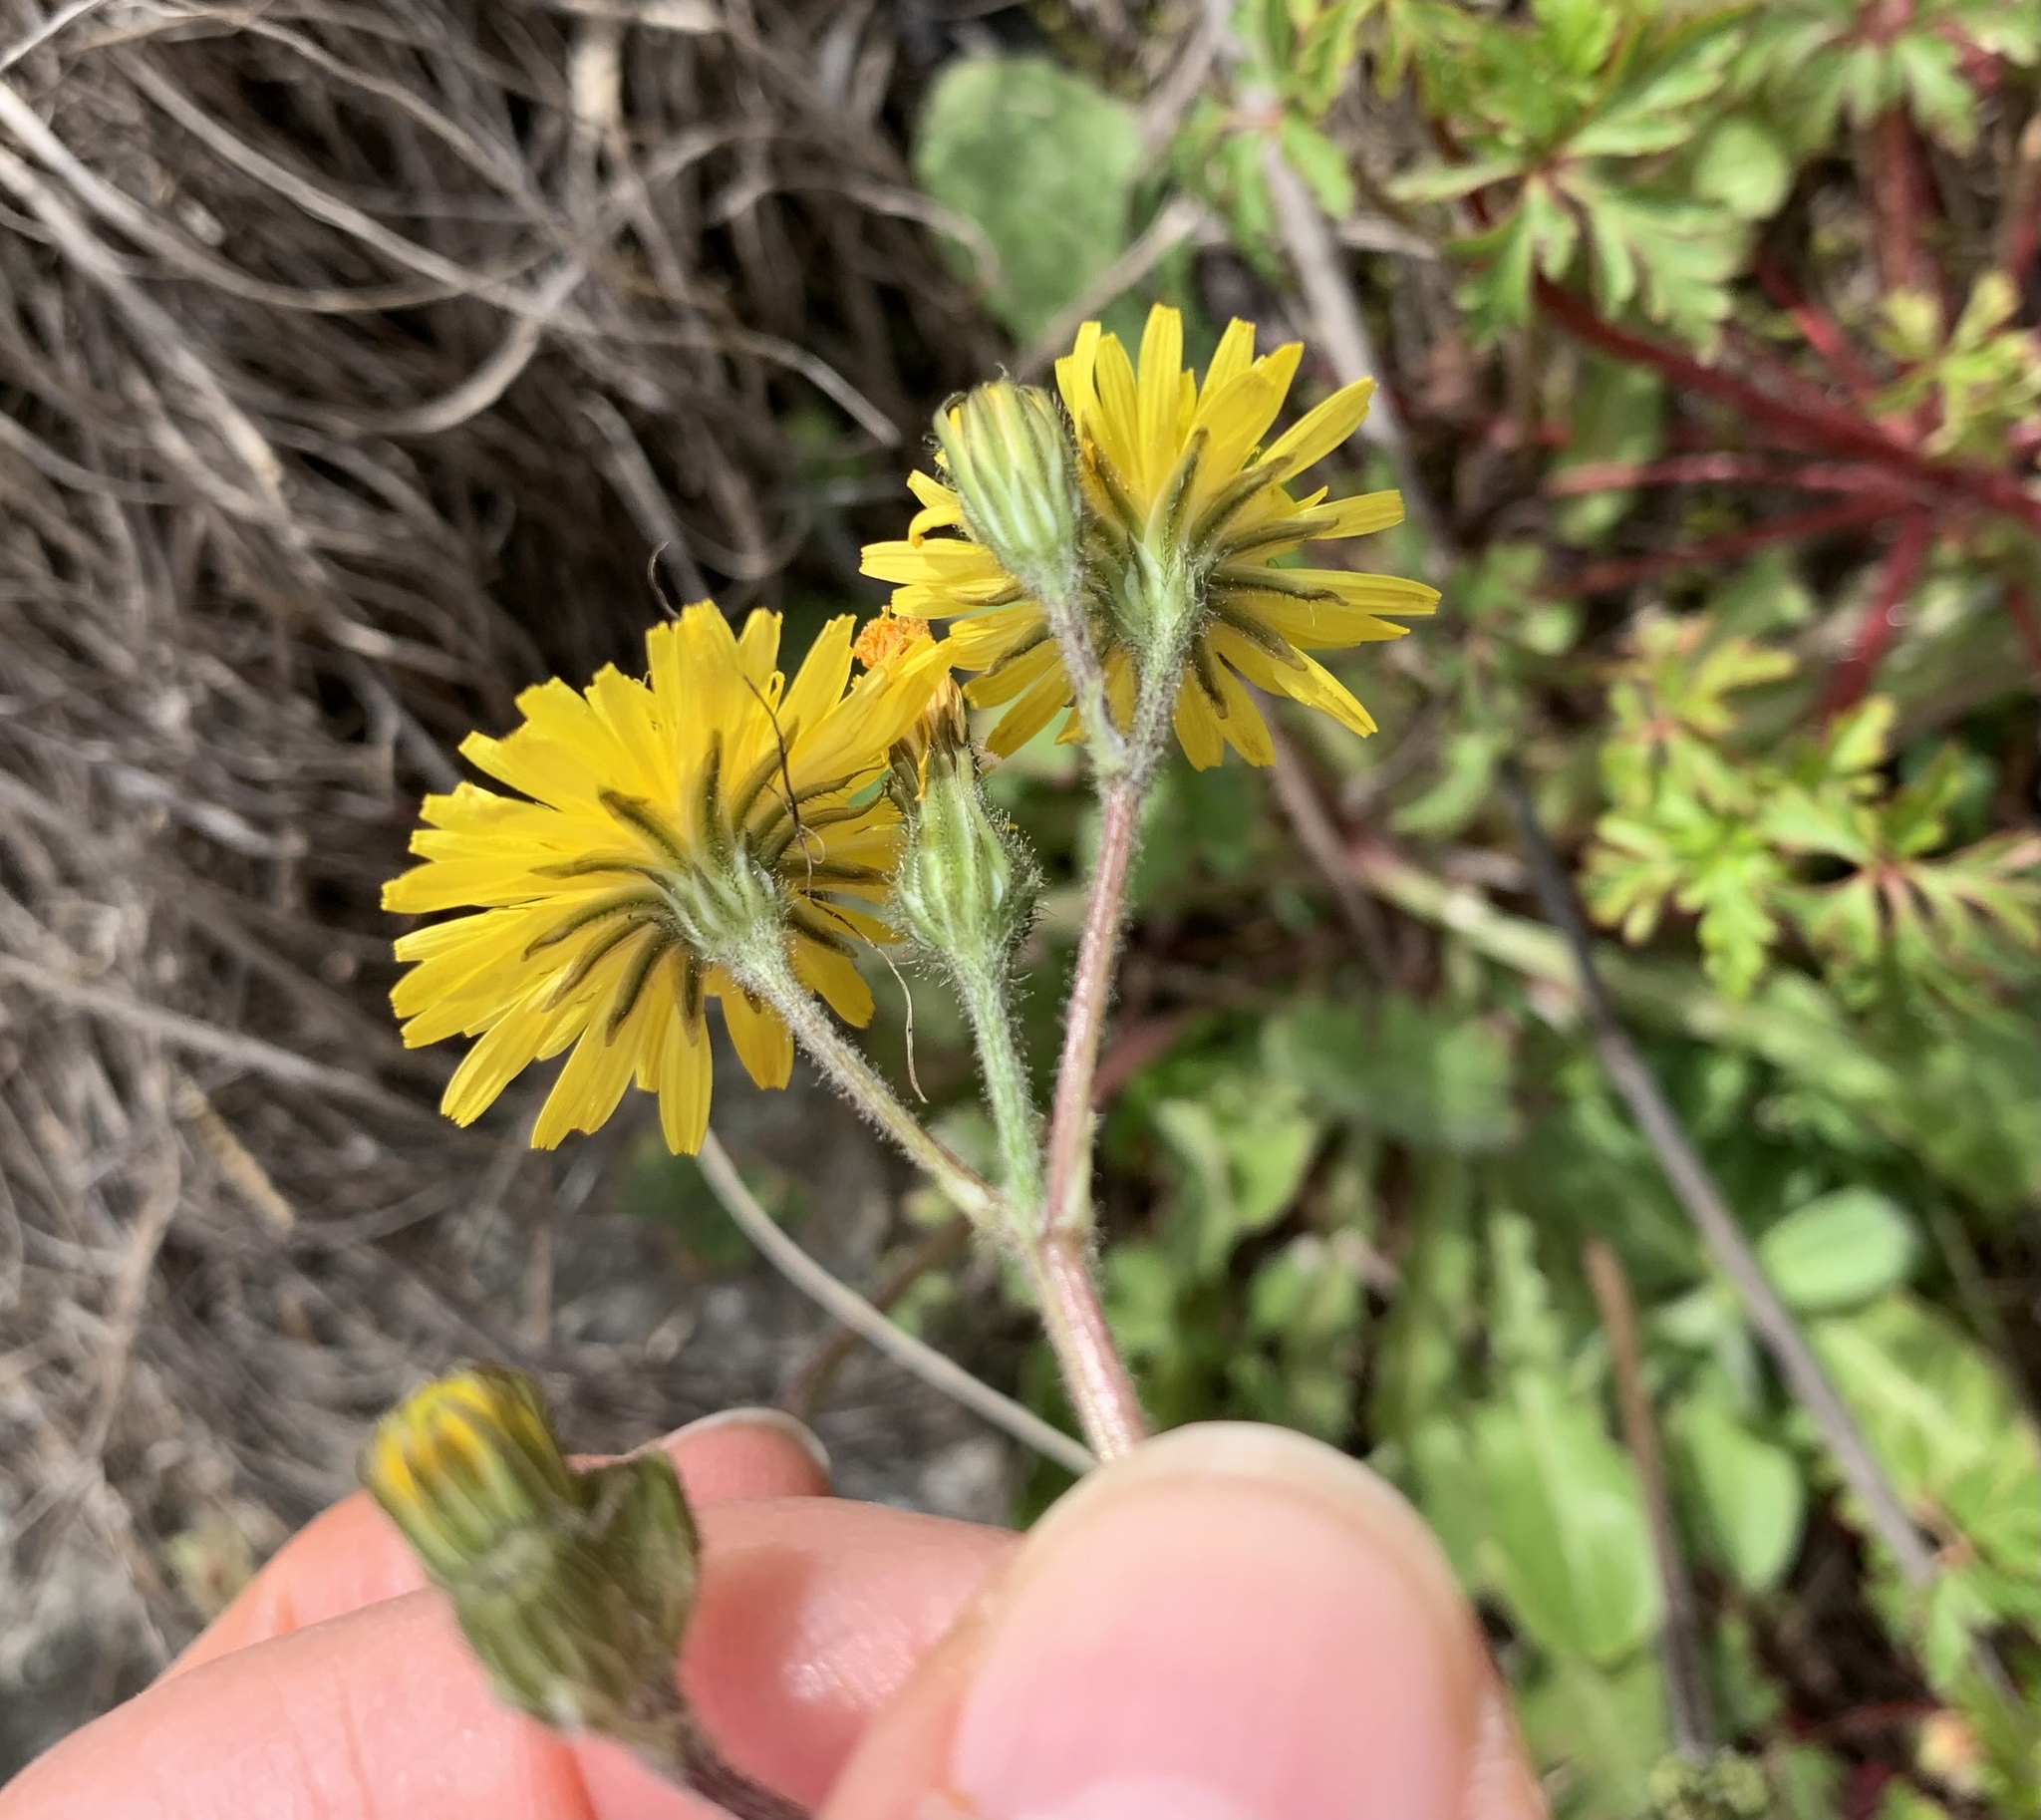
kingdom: Plantae
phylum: Tracheophyta
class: Magnoliopsida
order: Asterales
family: Asteraceae
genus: Crepis
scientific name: Crepis sancta
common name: Hawk's-beard
